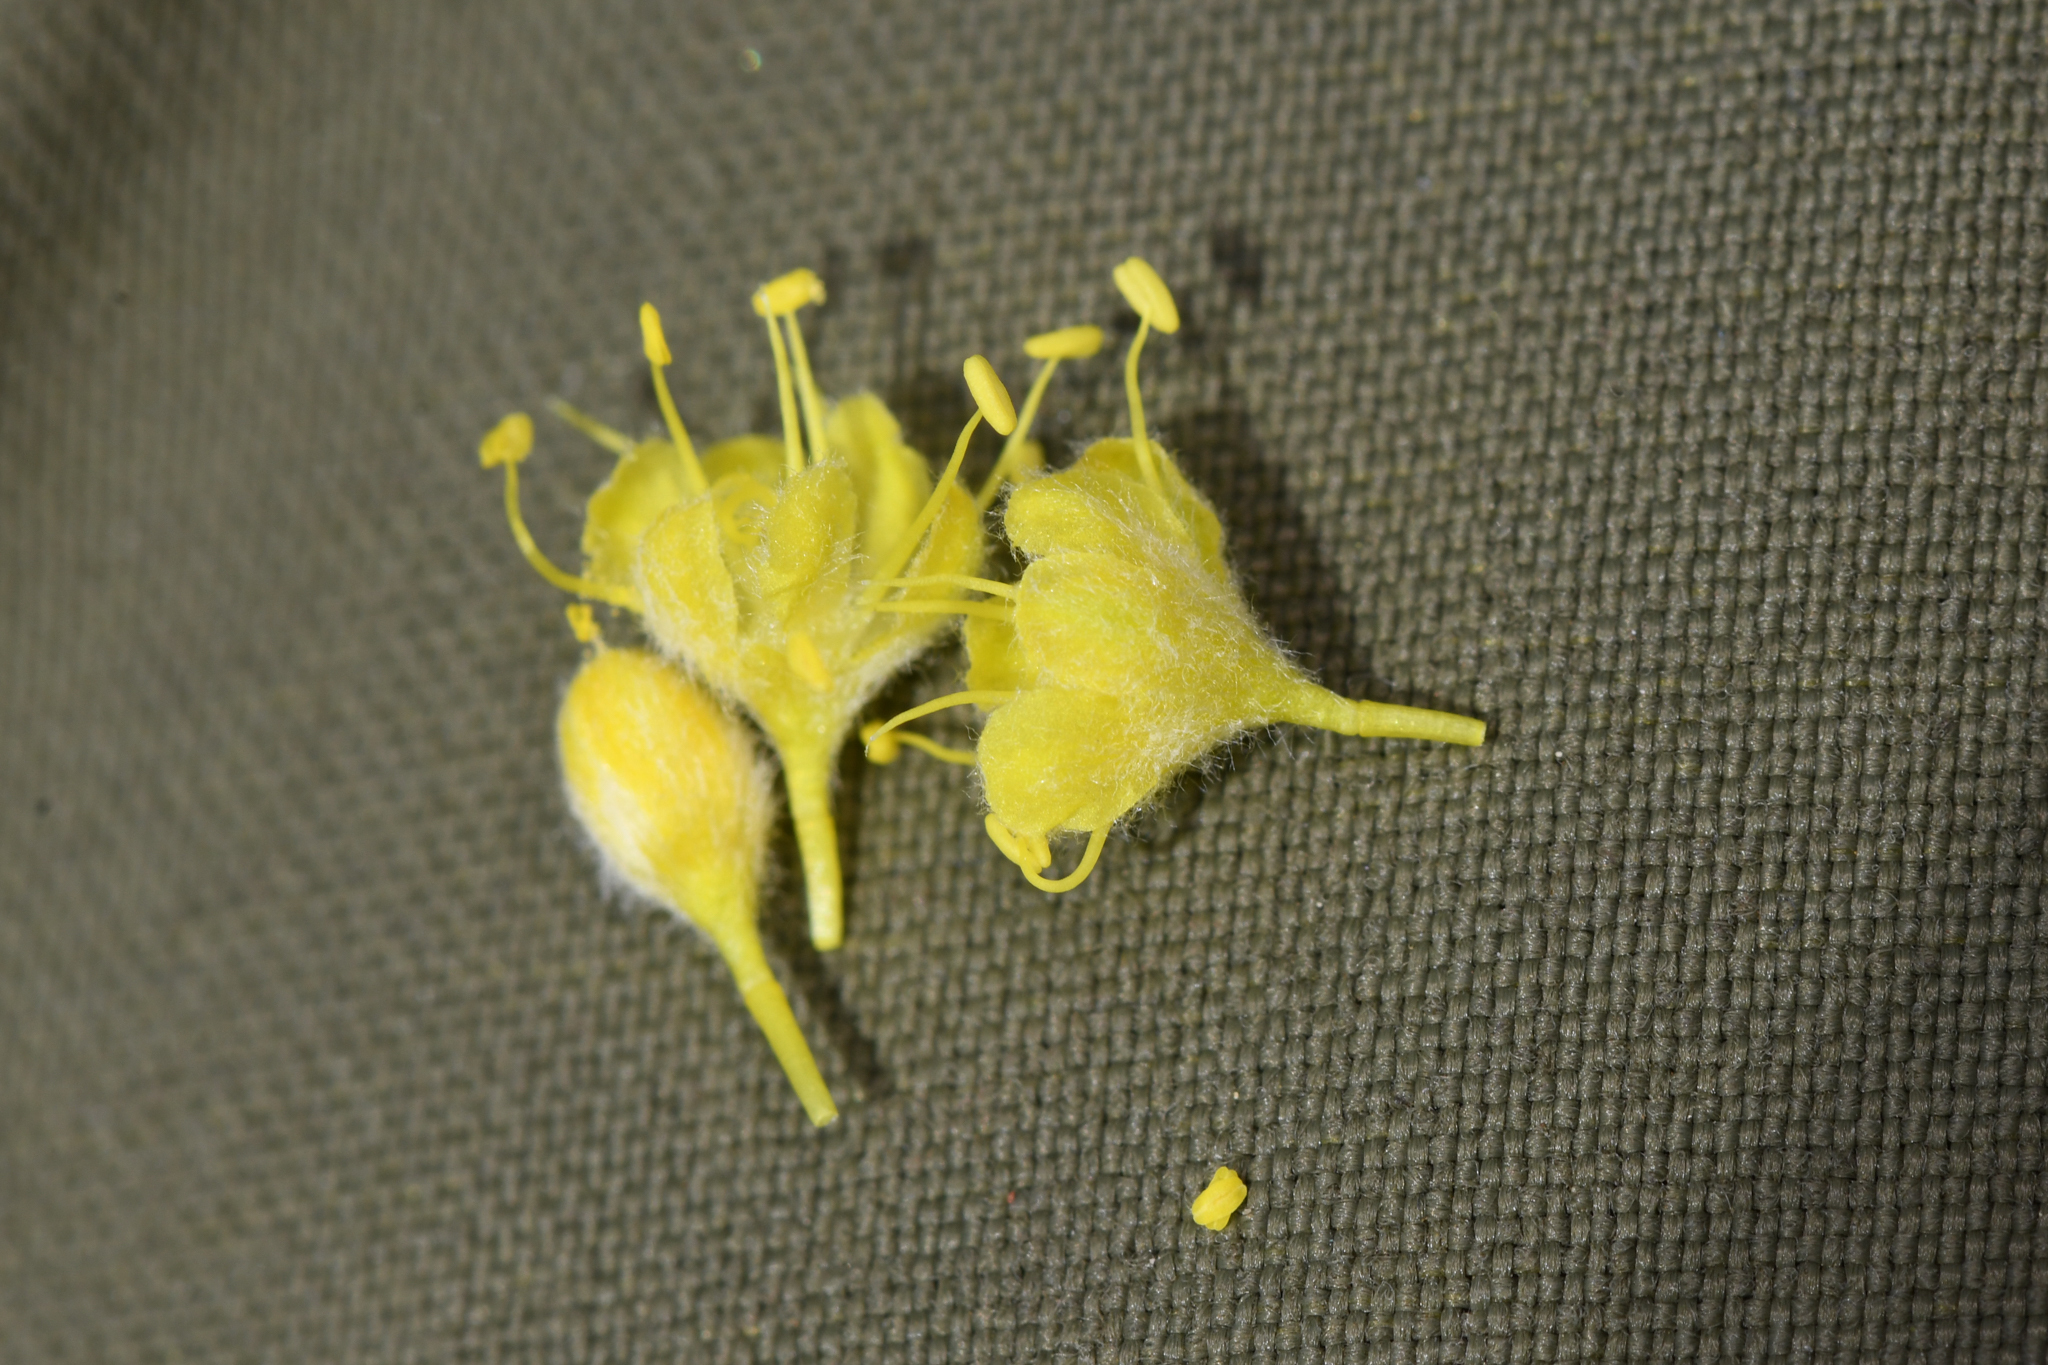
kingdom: Plantae
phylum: Tracheophyta
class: Magnoliopsida
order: Caryophyllales
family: Polygonaceae
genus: Eriogonum
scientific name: Eriogonum tripodum
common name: Tripod buckwheat
